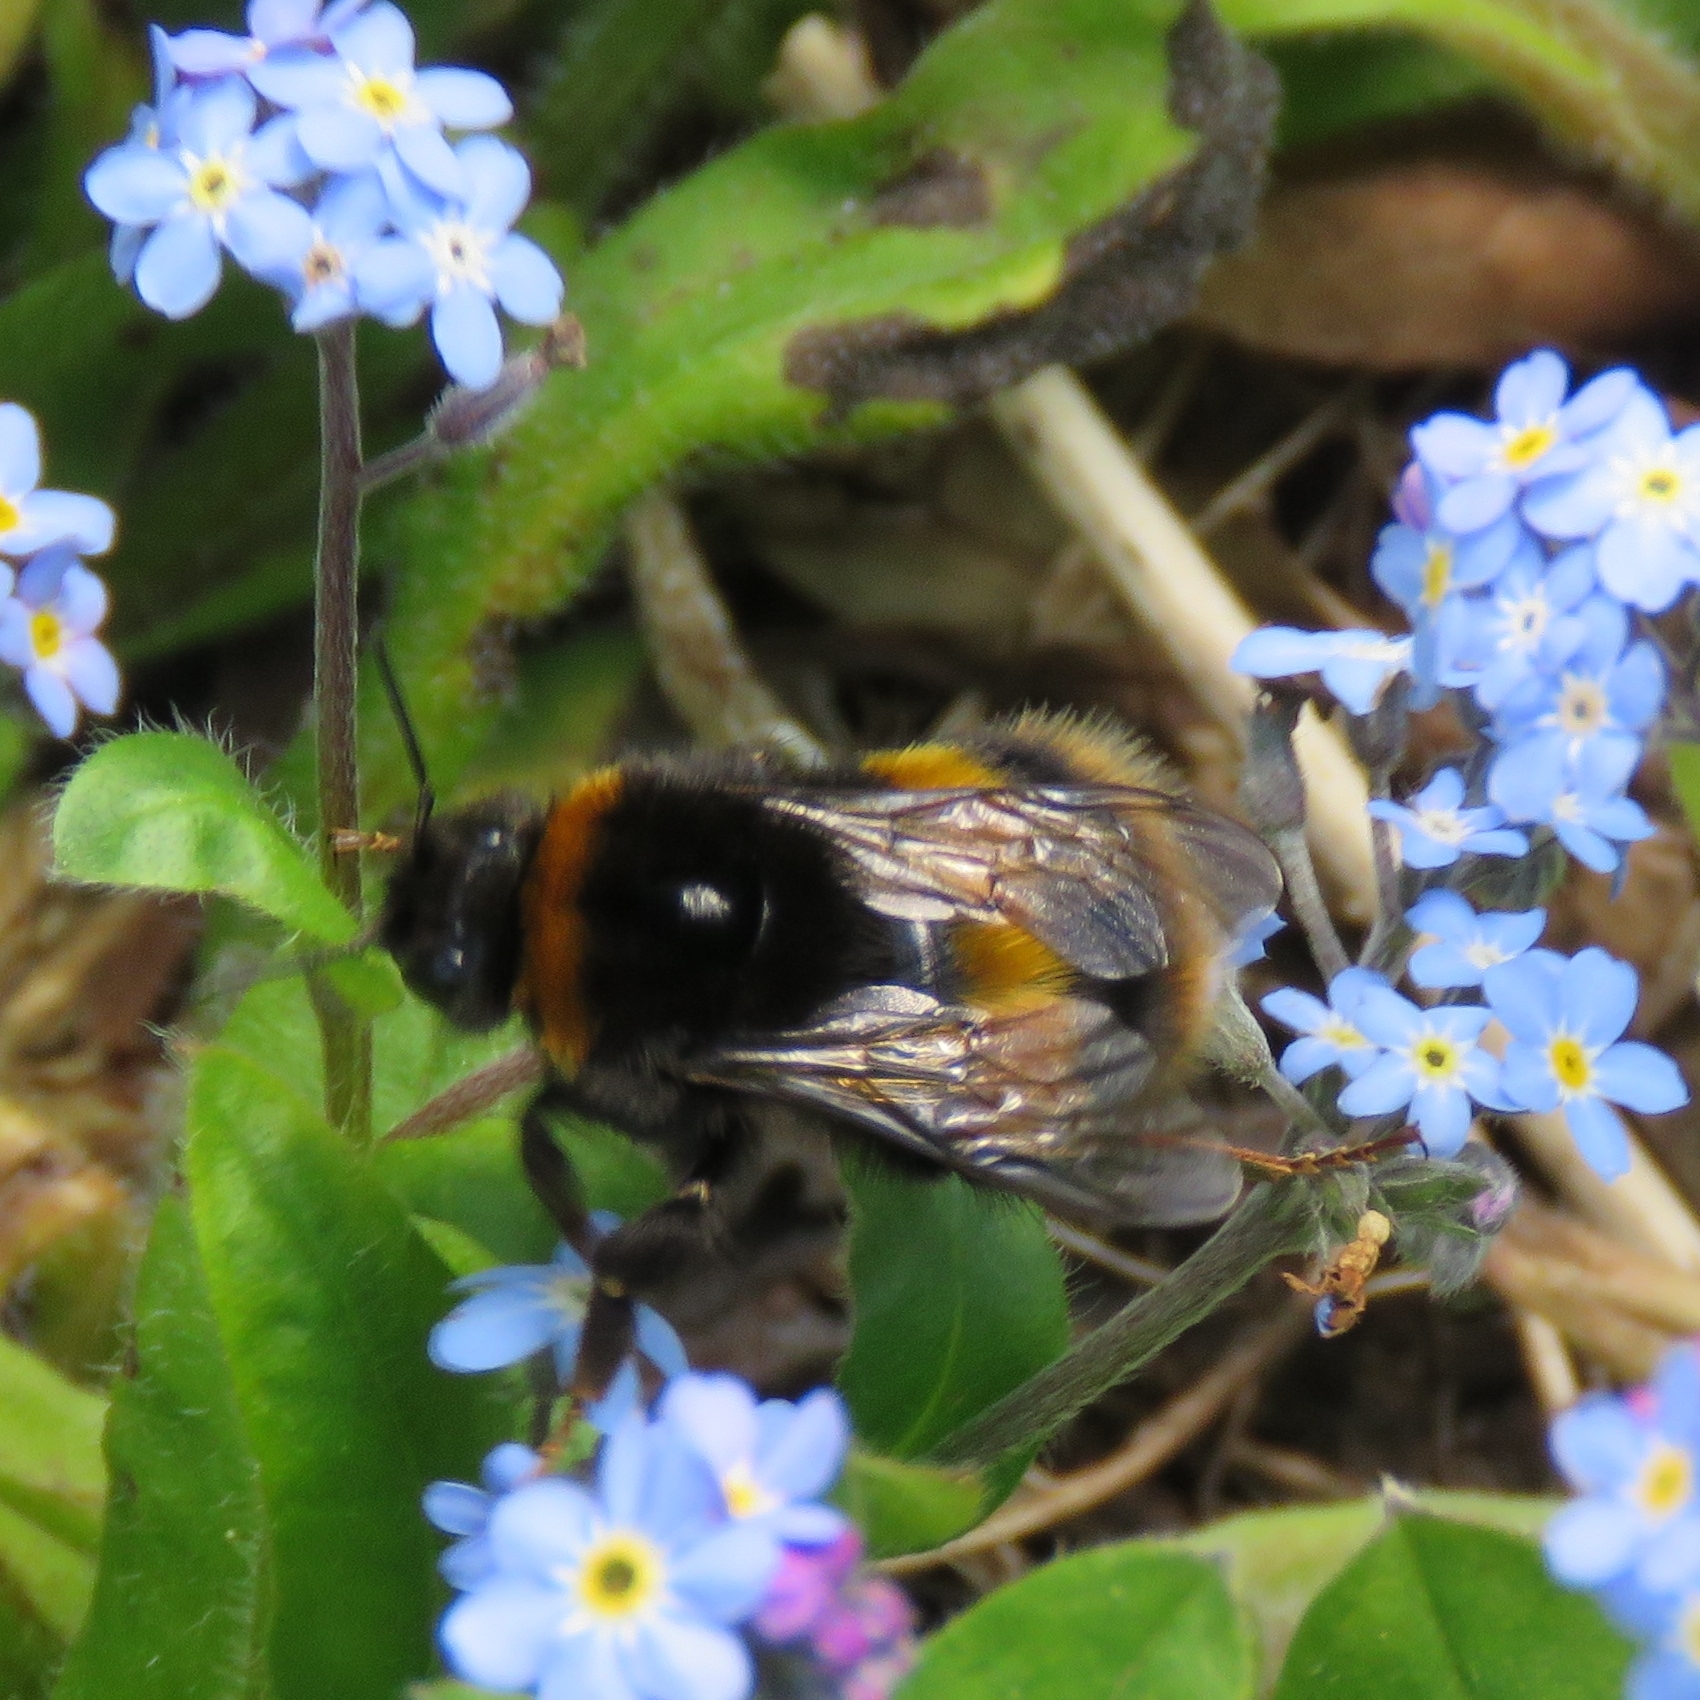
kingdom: Animalia
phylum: Arthropoda
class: Insecta
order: Hymenoptera
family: Apidae
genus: Bombus
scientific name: Bombus terrestris
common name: Buff-tailed bumblebee
